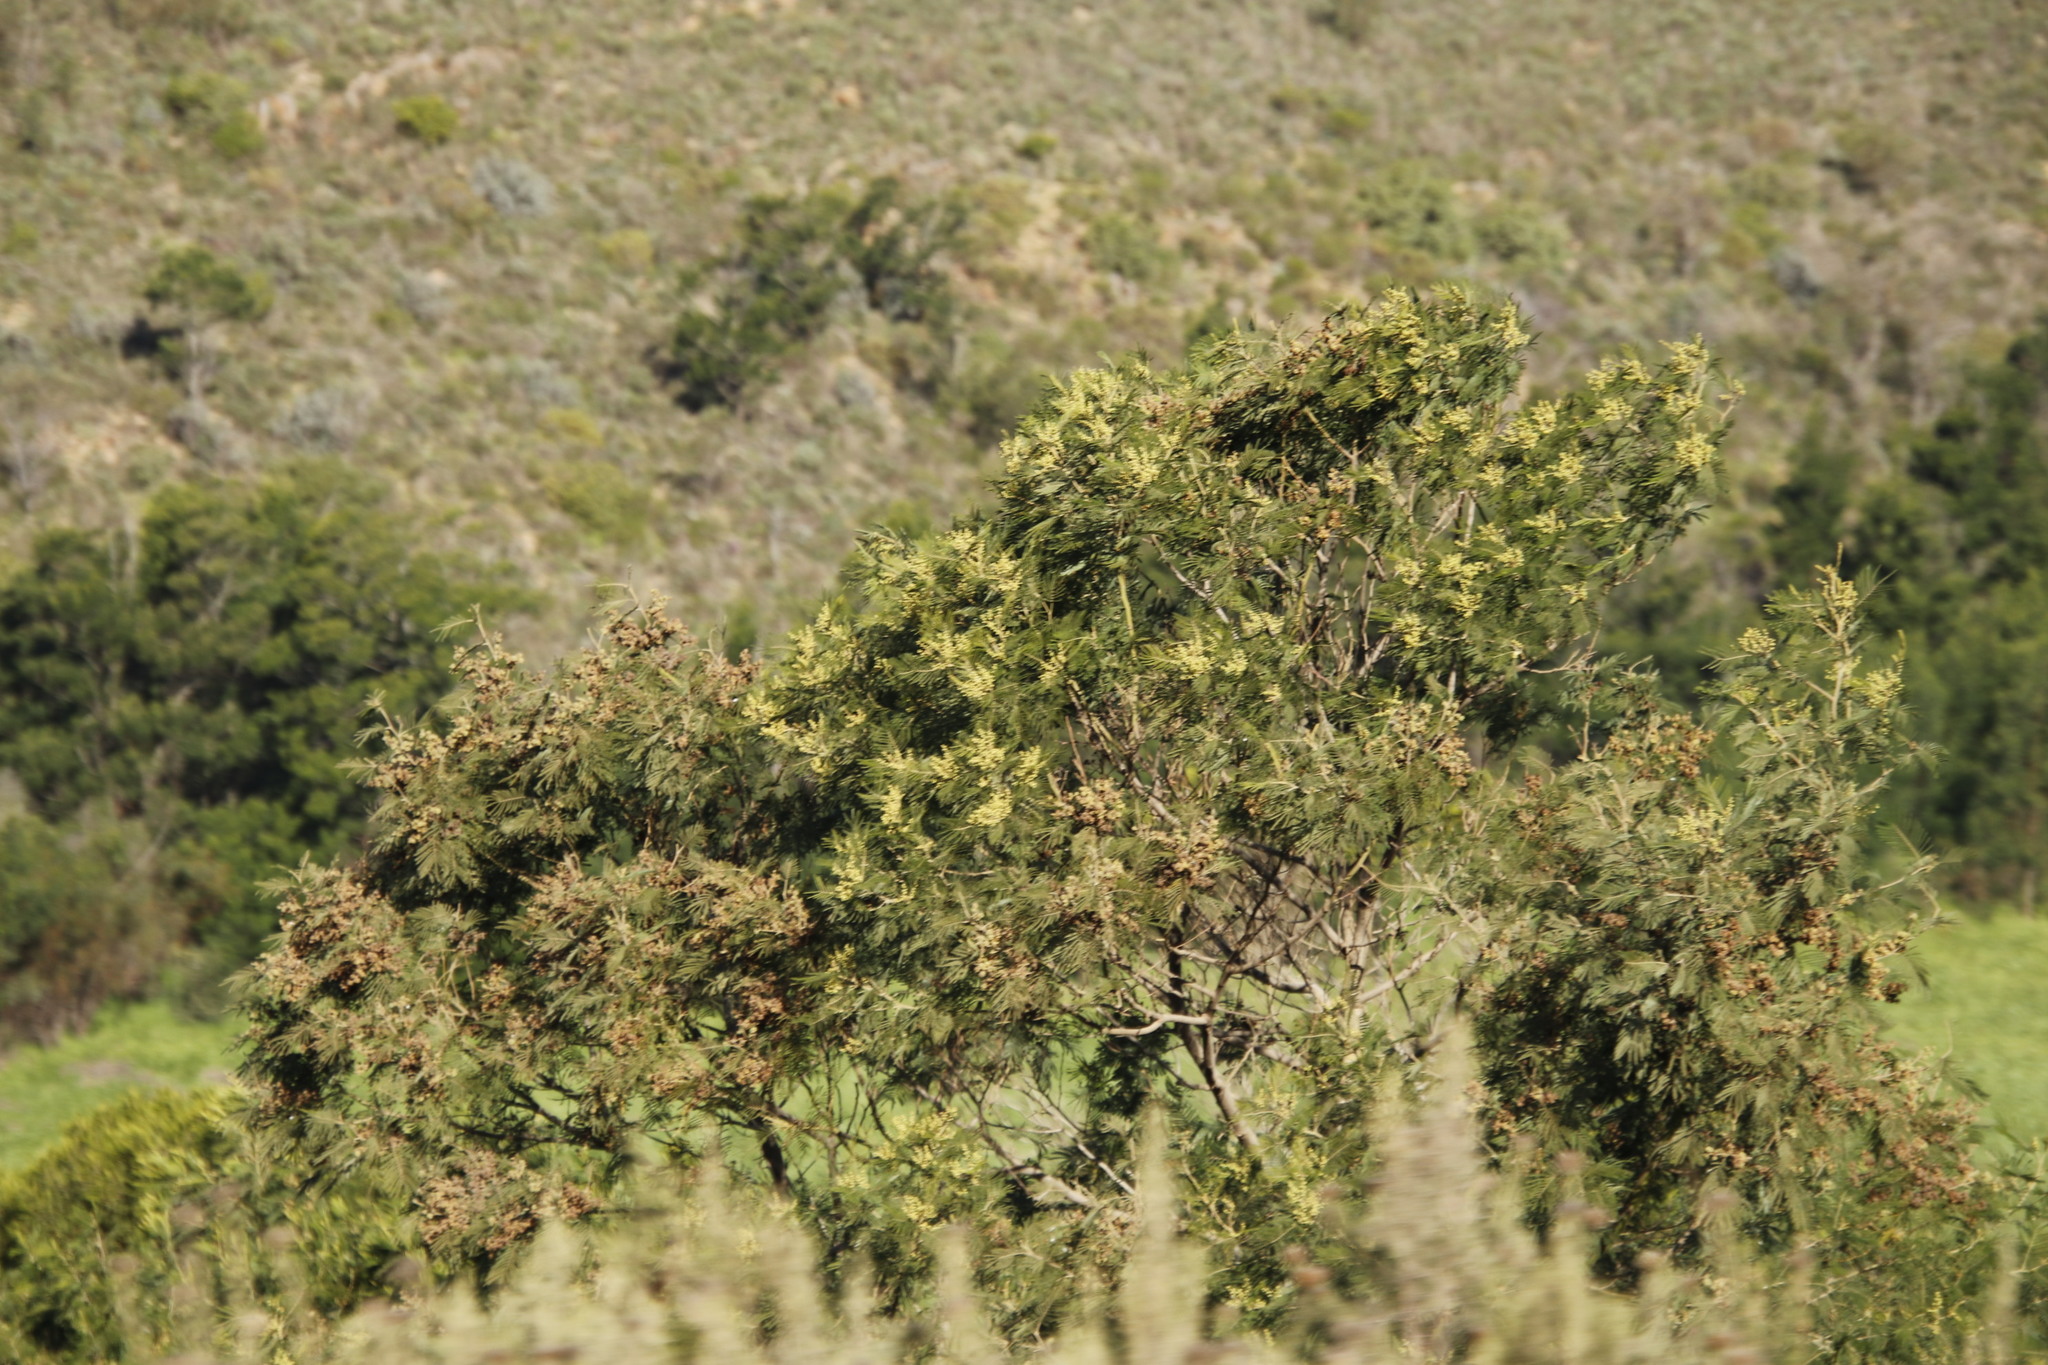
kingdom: Plantae
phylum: Tracheophyta
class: Magnoliopsida
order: Fabales
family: Fabaceae
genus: Acacia
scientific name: Acacia mearnsii
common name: Black wattle
